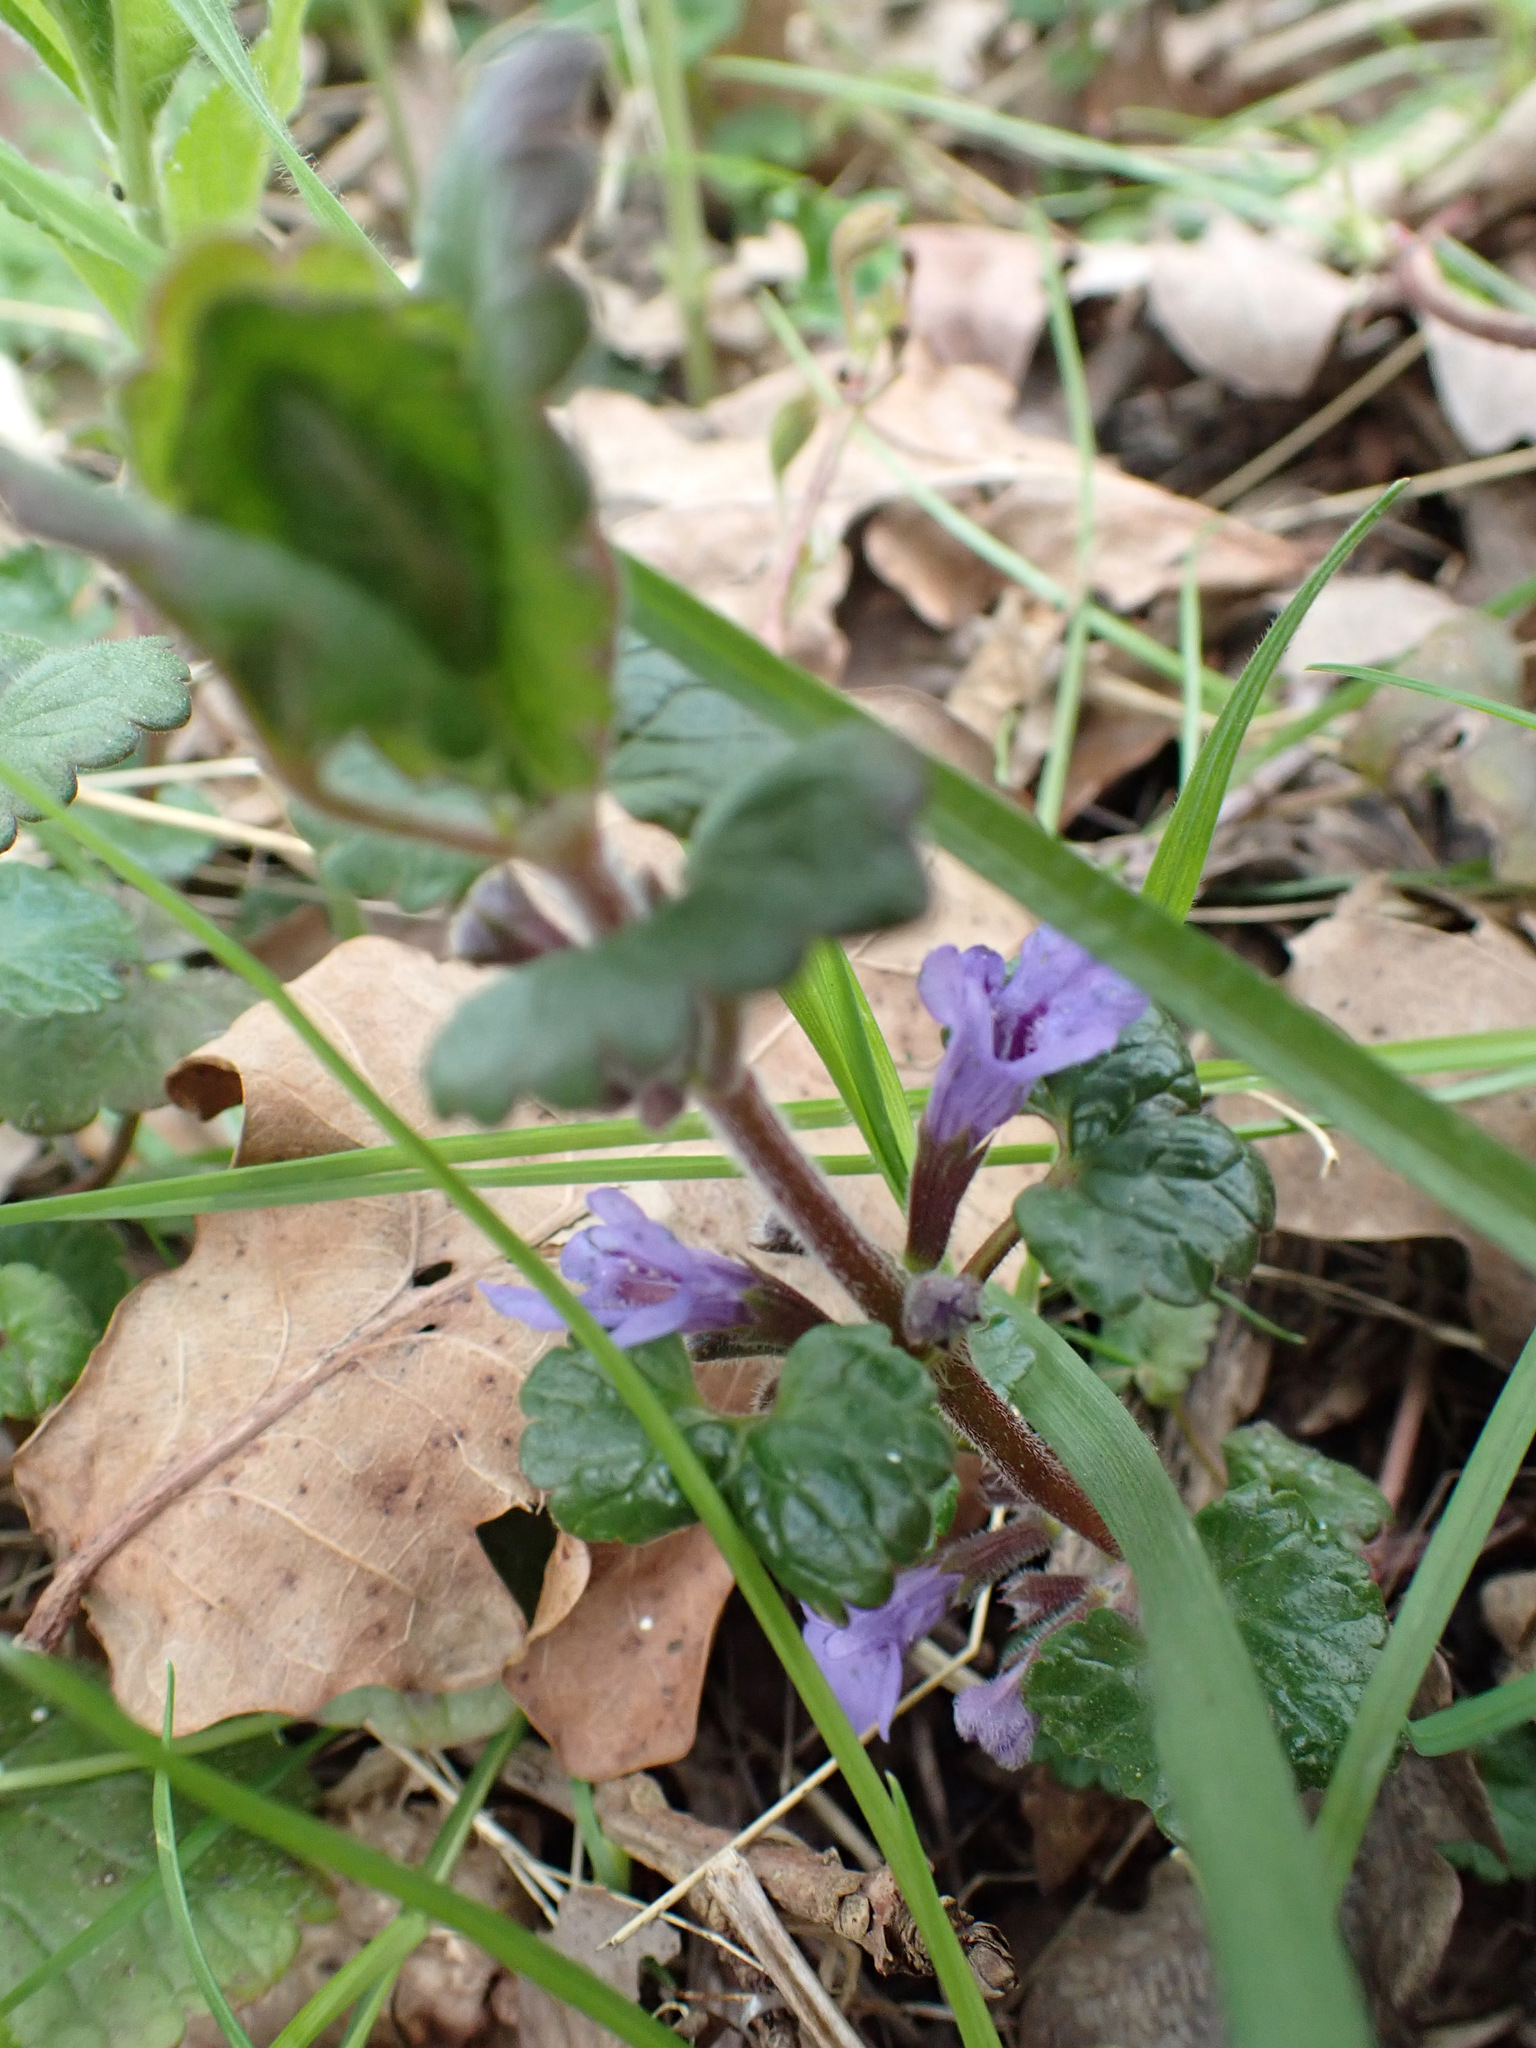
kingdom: Plantae
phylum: Tracheophyta
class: Magnoliopsida
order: Lamiales
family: Lamiaceae
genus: Glechoma
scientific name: Glechoma hederacea
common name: Ground ivy
